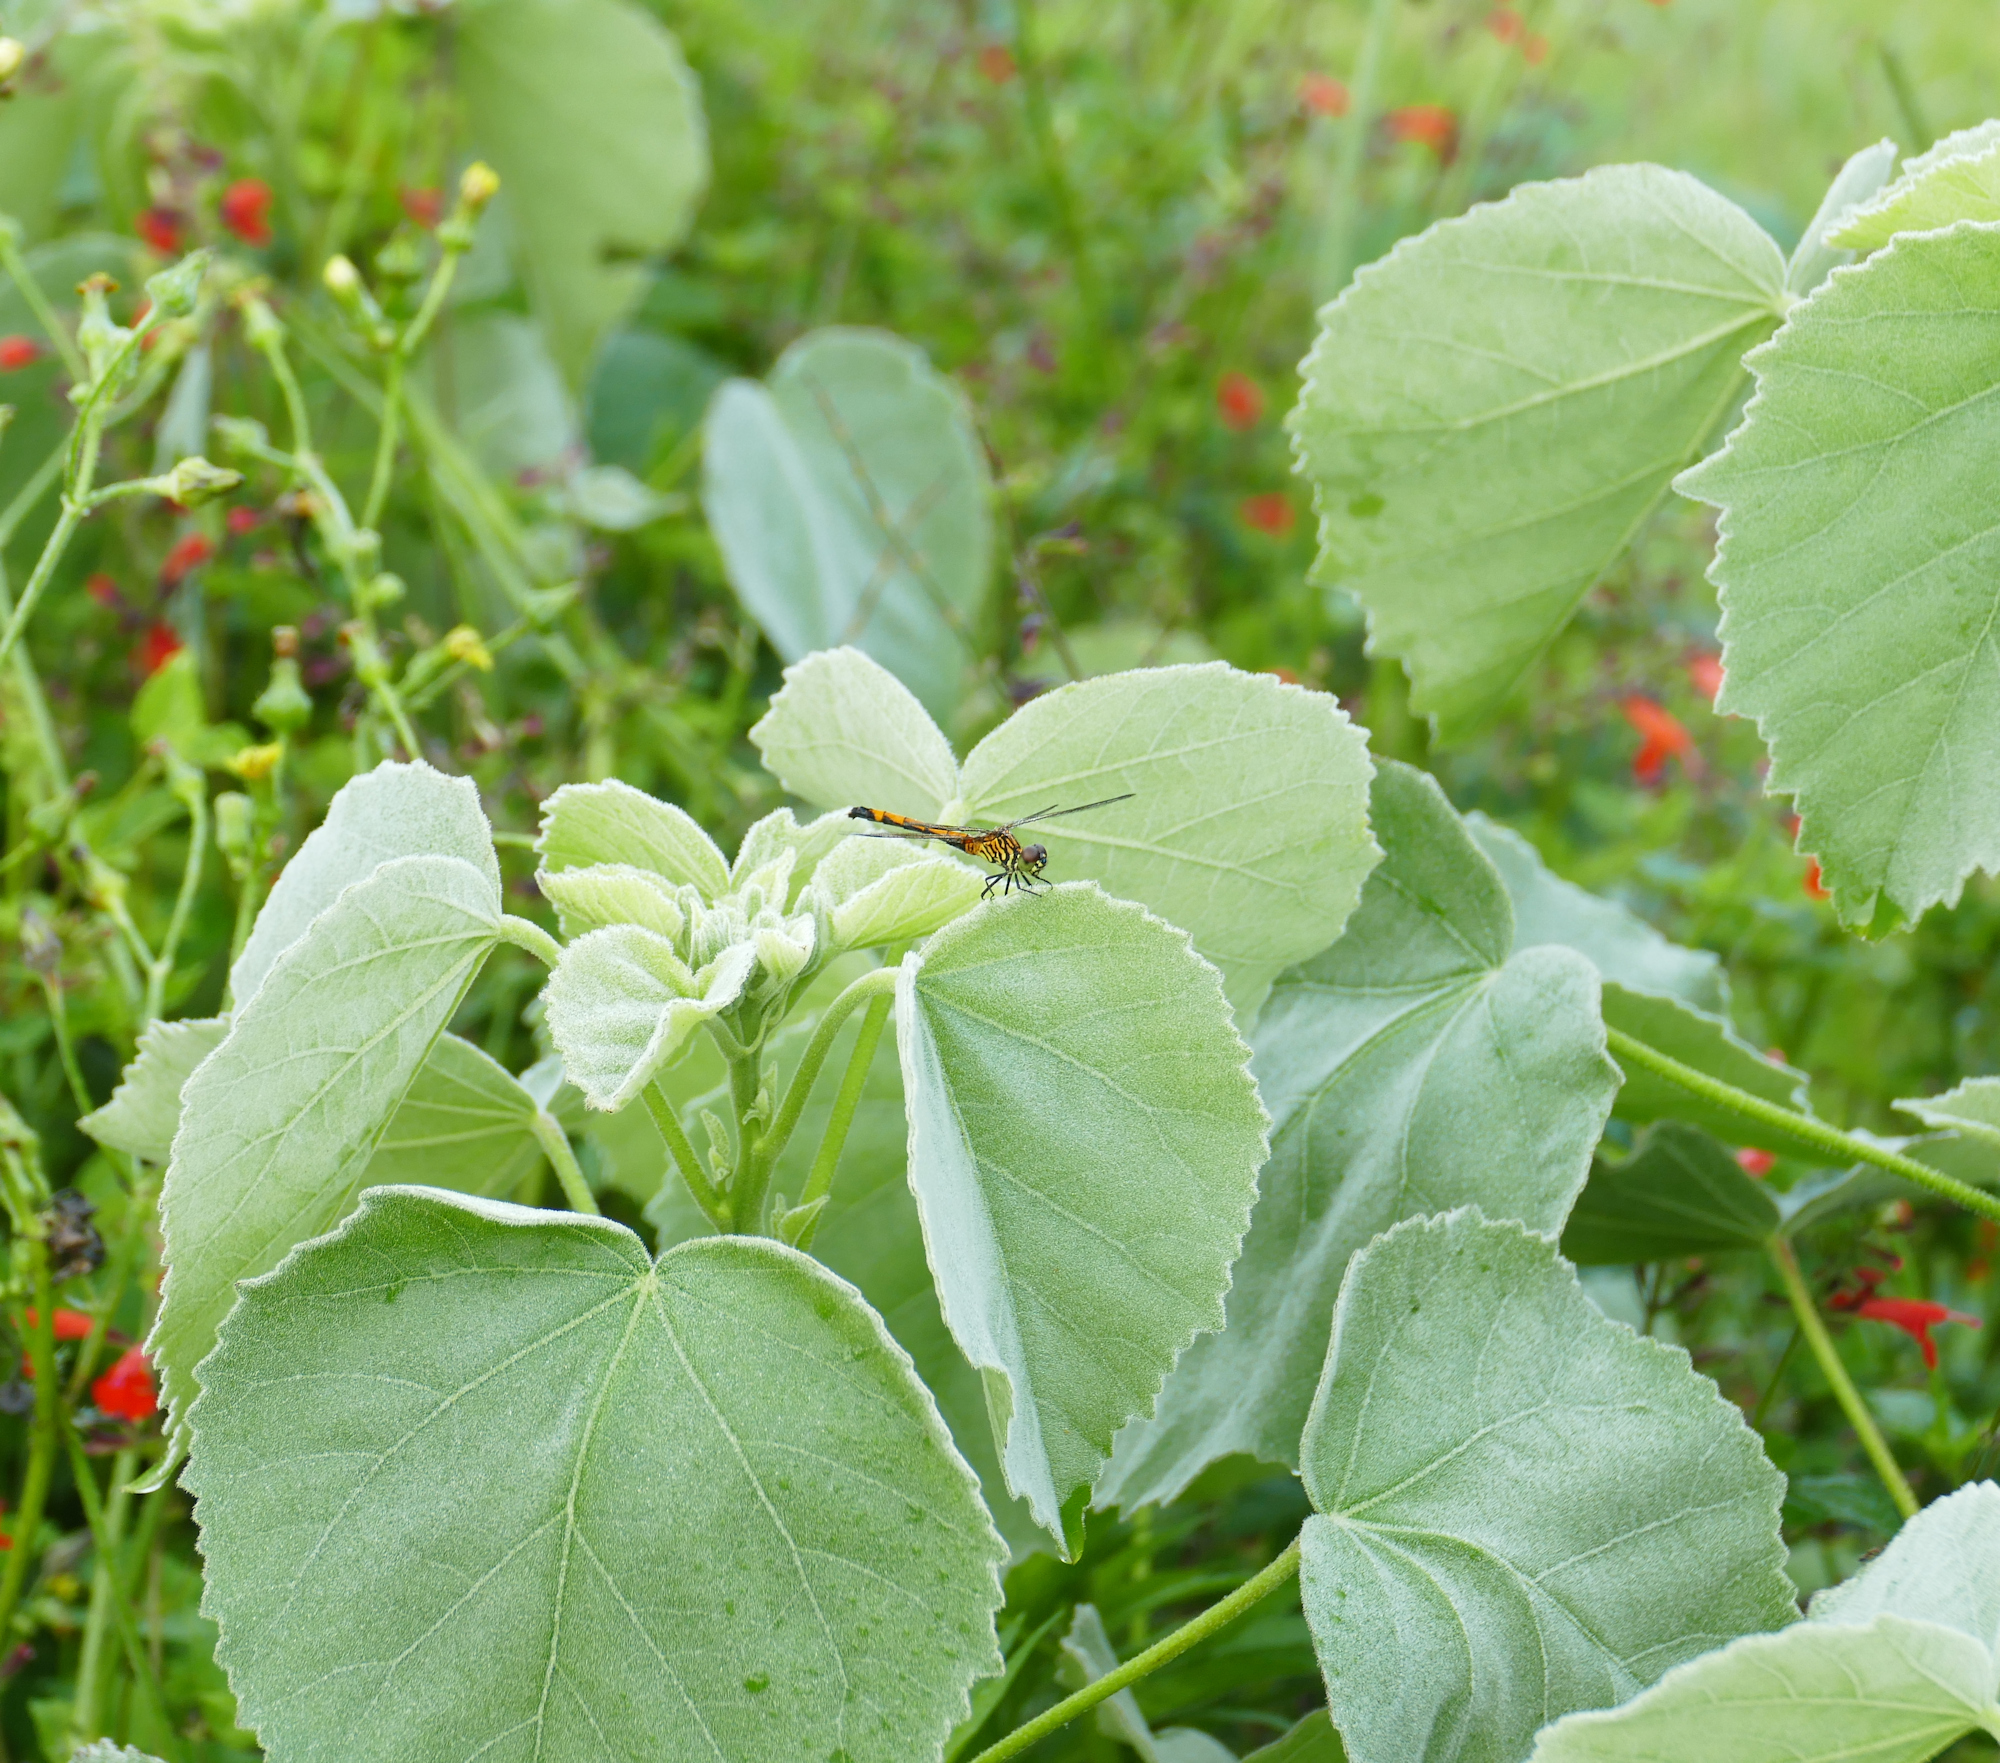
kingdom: Animalia
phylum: Arthropoda
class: Insecta
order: Odonata
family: Libellulidae
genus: Erythrodiplax
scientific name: Erythrodiplax berenice
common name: Seaside dragonlet
